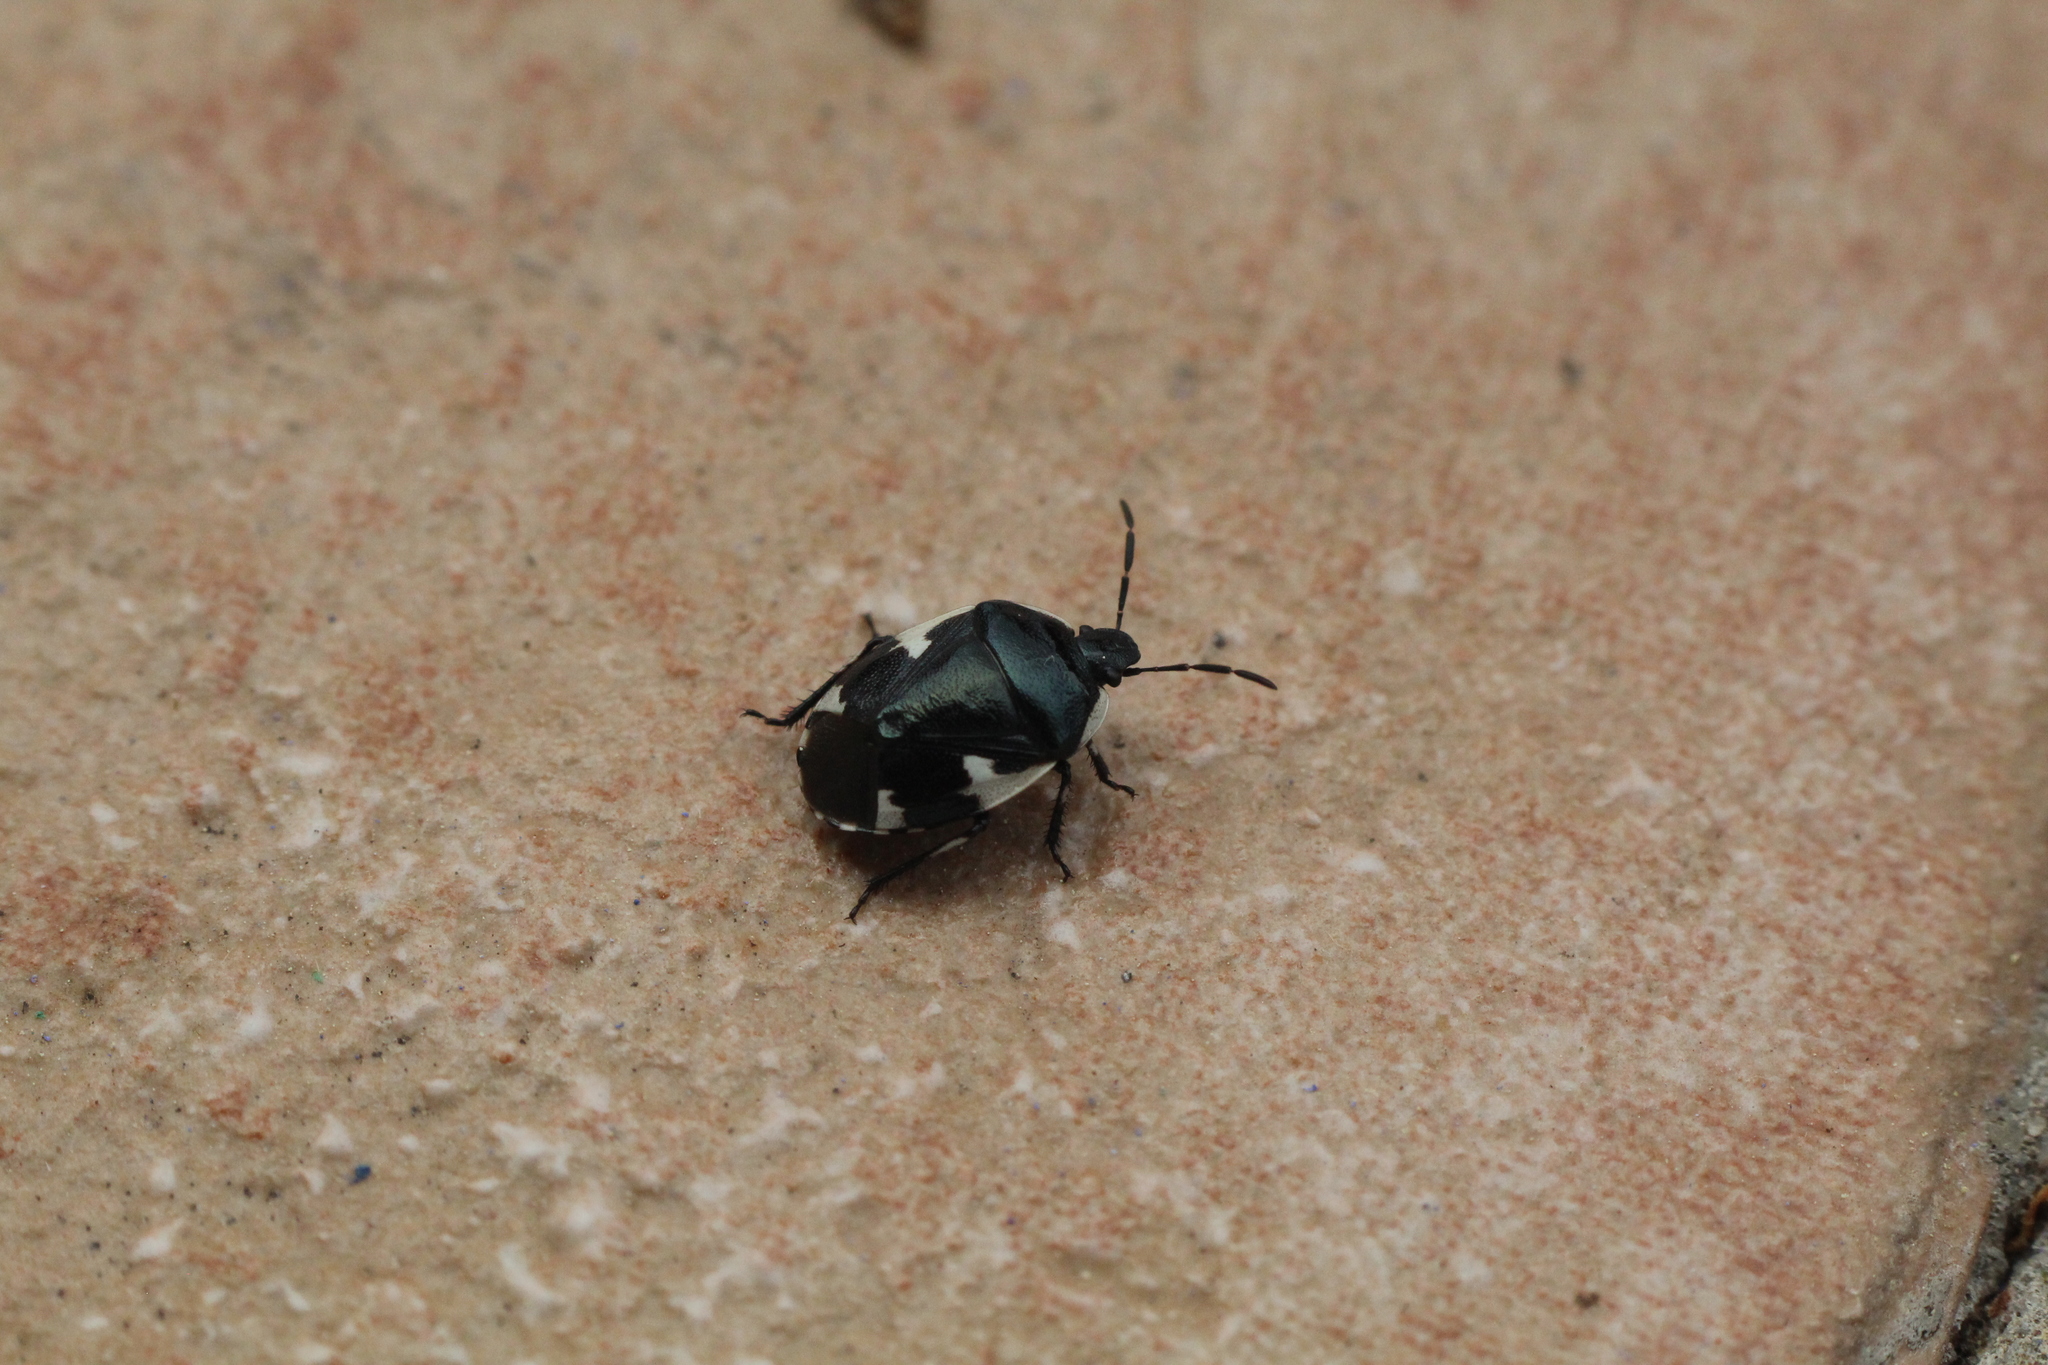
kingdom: Animalia
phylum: Arthropoda
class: Insecta
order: Hemiptera
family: Cydnidae
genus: Tritomegas
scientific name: Tritomegas sexmaculatus
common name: Rambur's pied shieldbug
